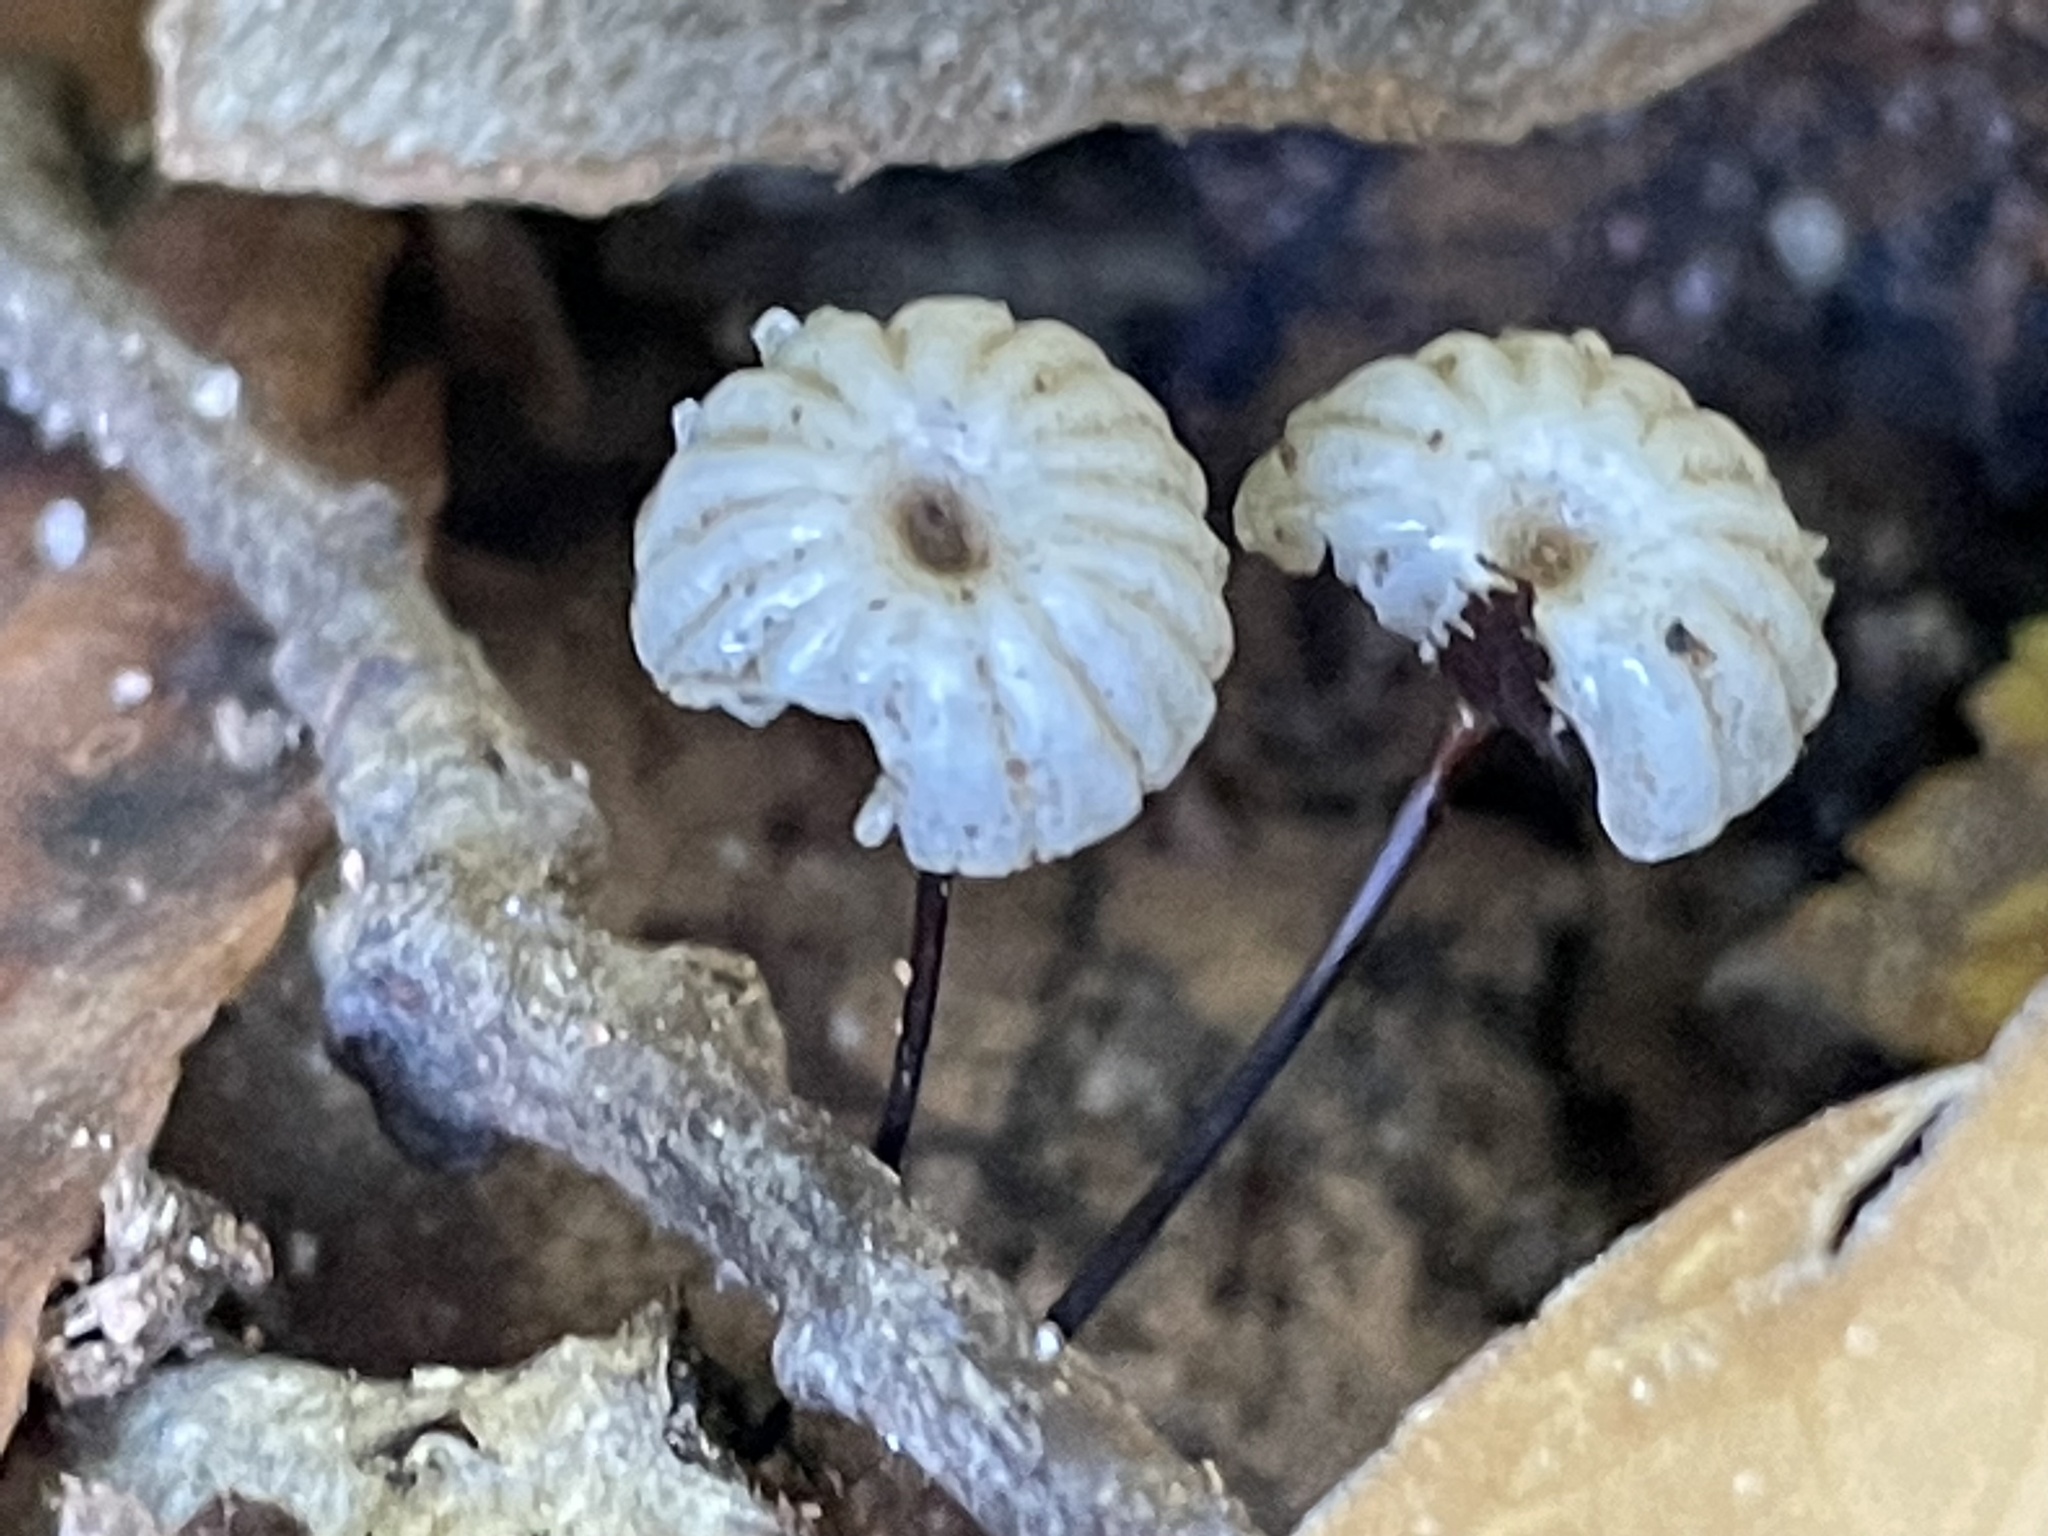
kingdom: Fungi
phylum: Basidiomycota
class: Agaricomycetes
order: Agaricales
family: Marasmiaceae
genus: Marasmius
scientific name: Marasmius rotula
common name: Collared parachute
